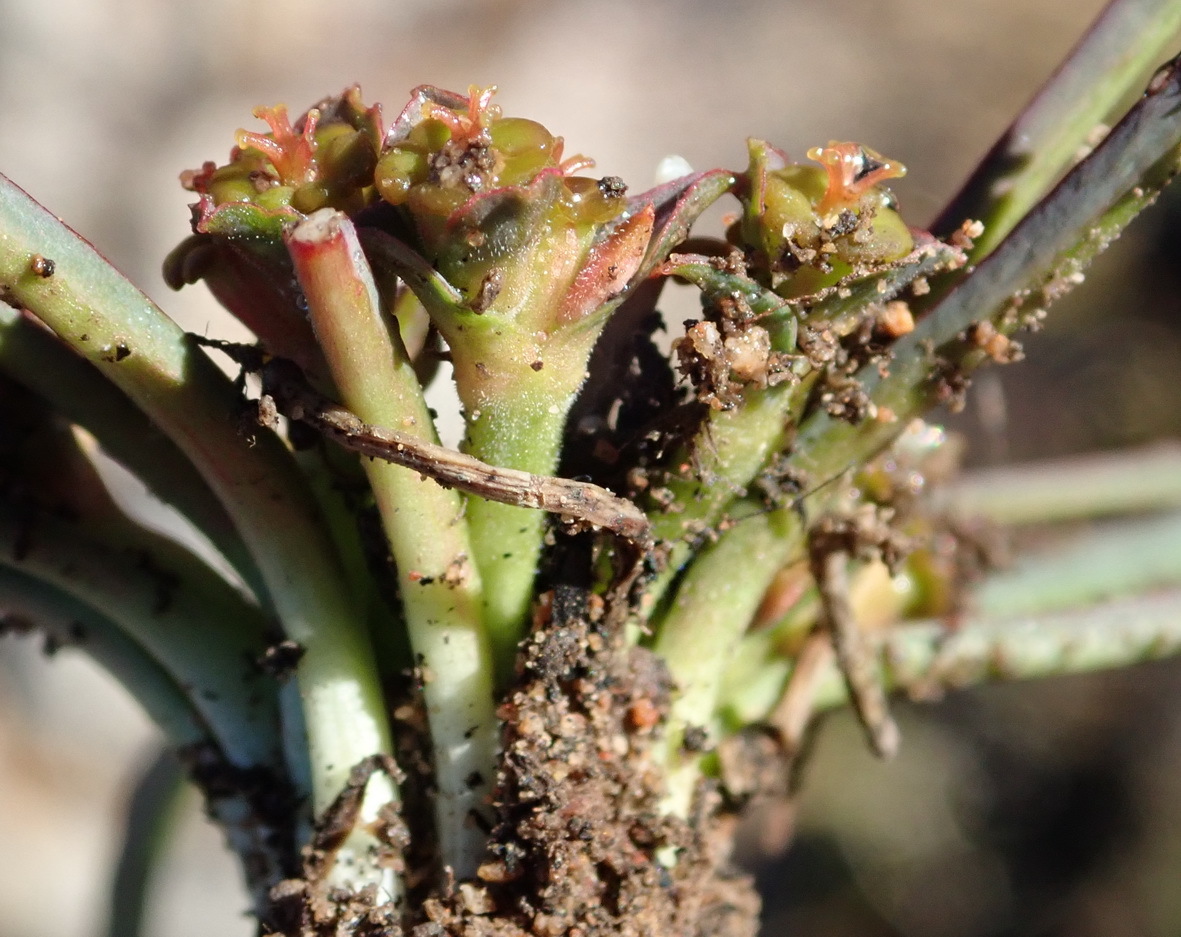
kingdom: Plantae
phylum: Tracheophyta
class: Magnoliopsida
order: Malpighiales
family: Euphorbiaceae
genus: Euphorbia
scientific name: Euphorbia silenifolia
